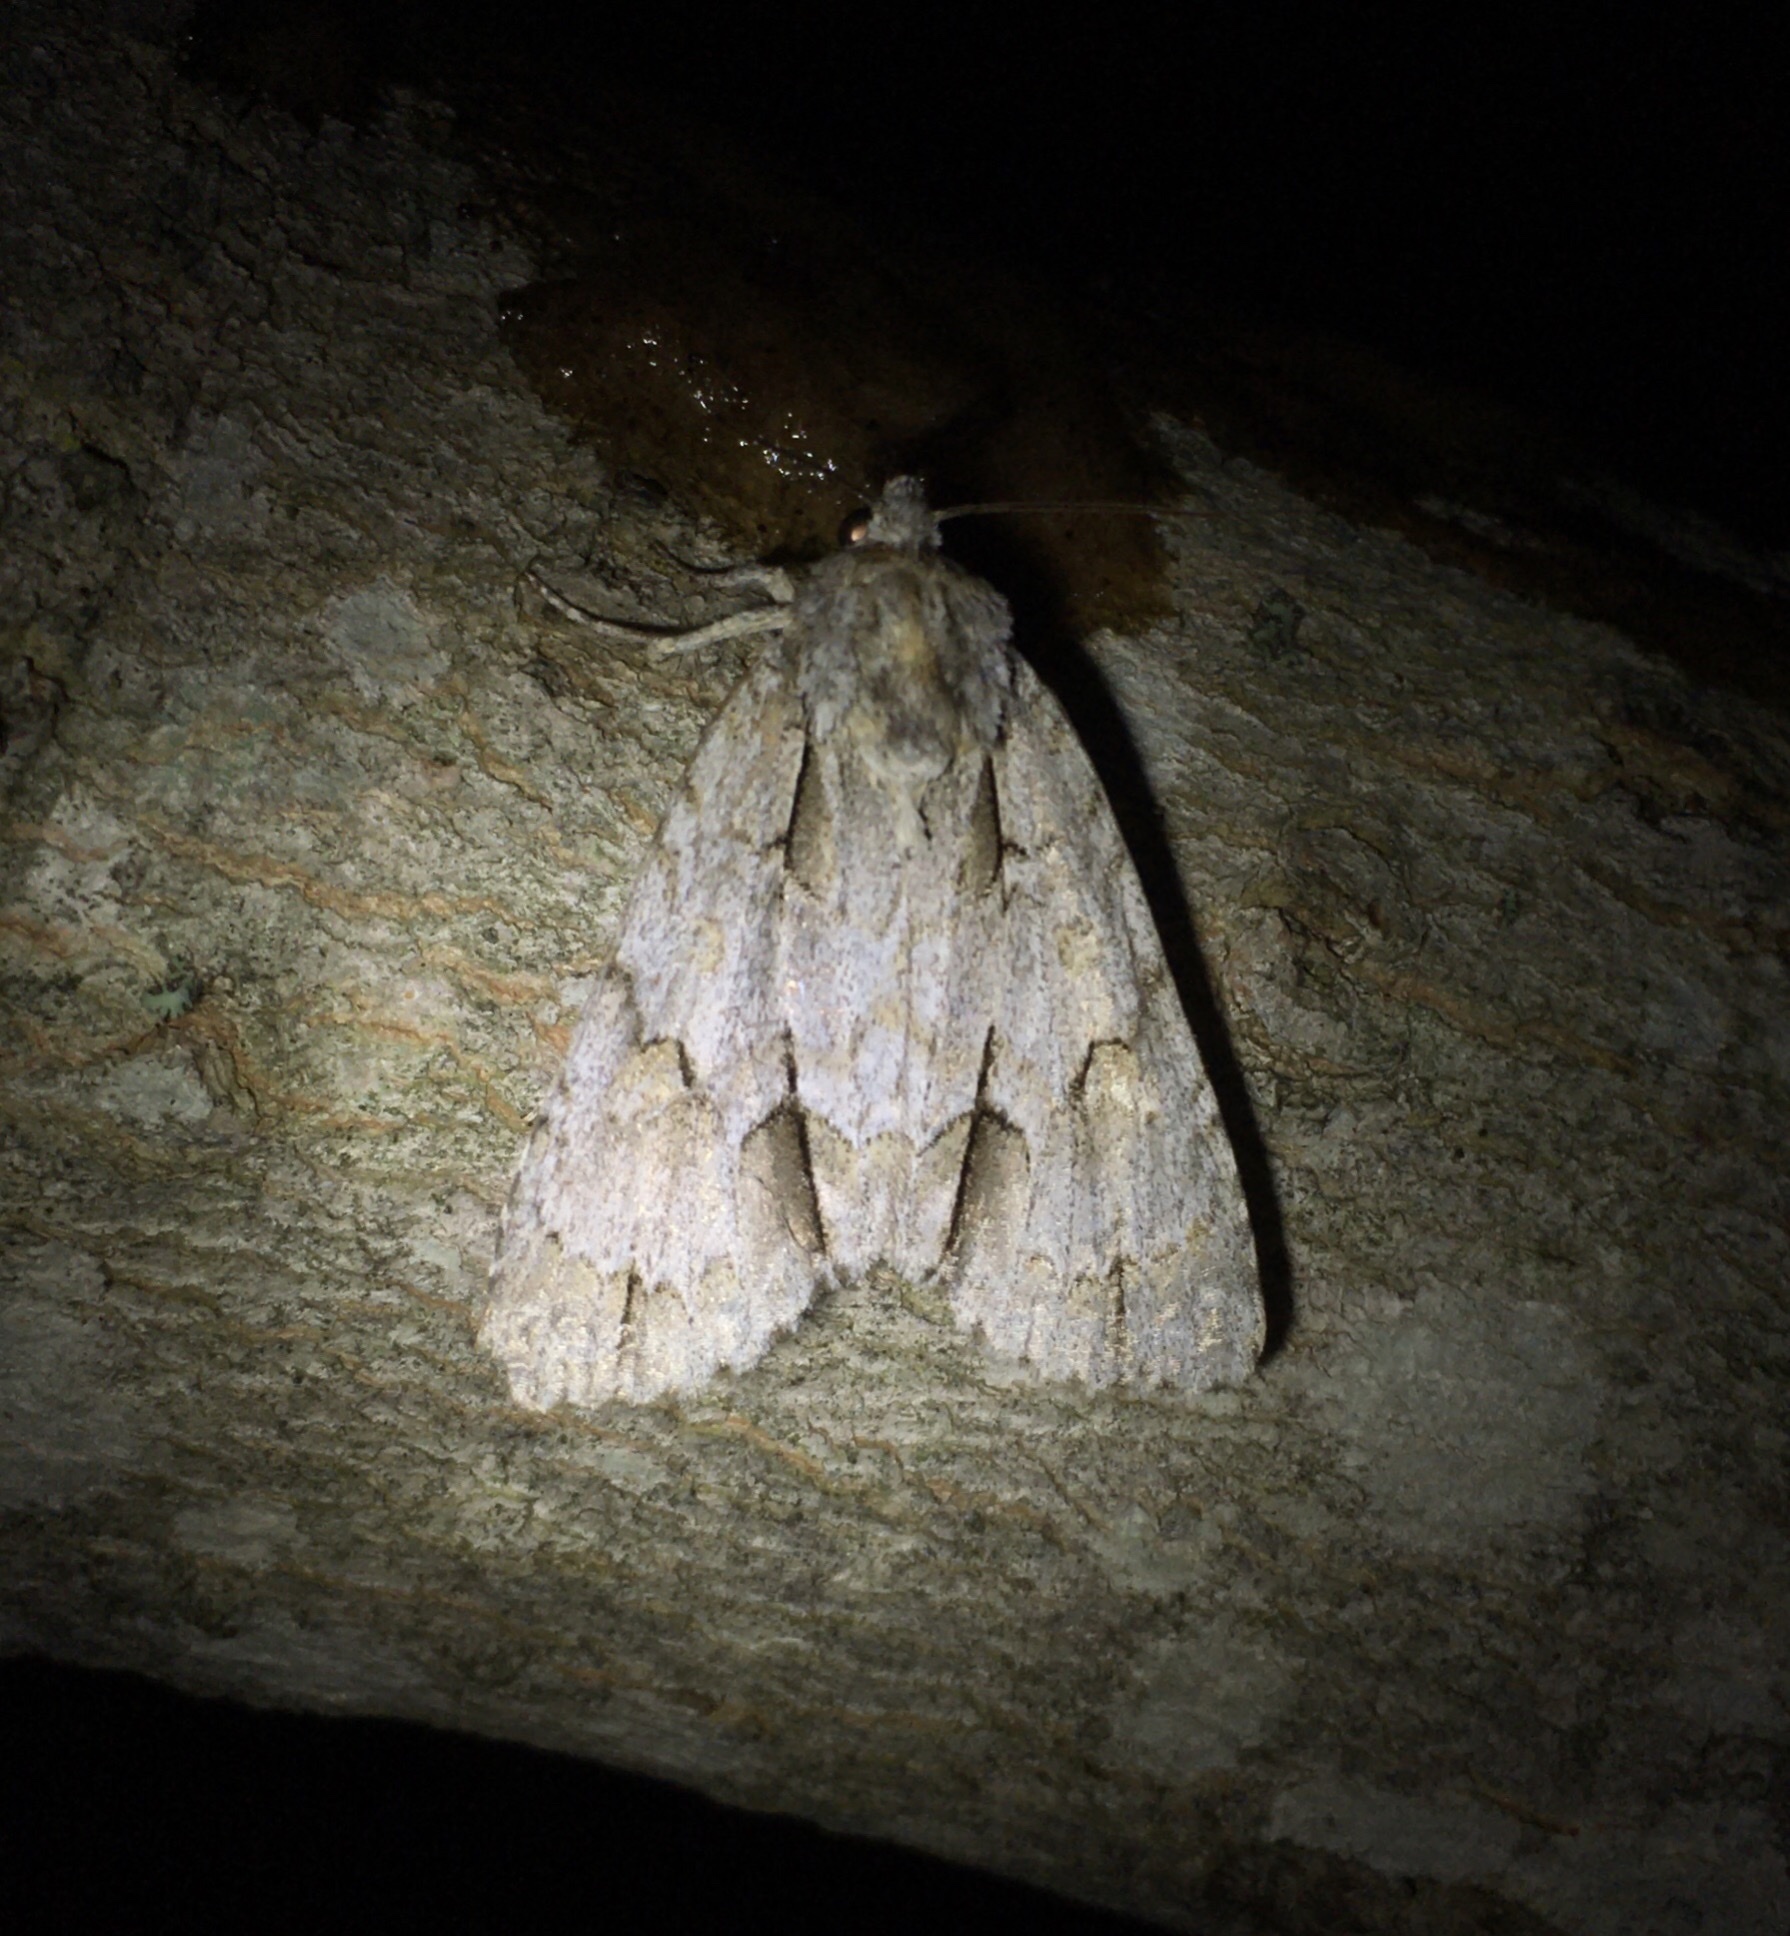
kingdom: Animalia
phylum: Arthropoda
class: Insecta
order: Lepidoptera
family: Noctuidae
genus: Acronicta
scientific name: Acronicta morula
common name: Ochre dagger
